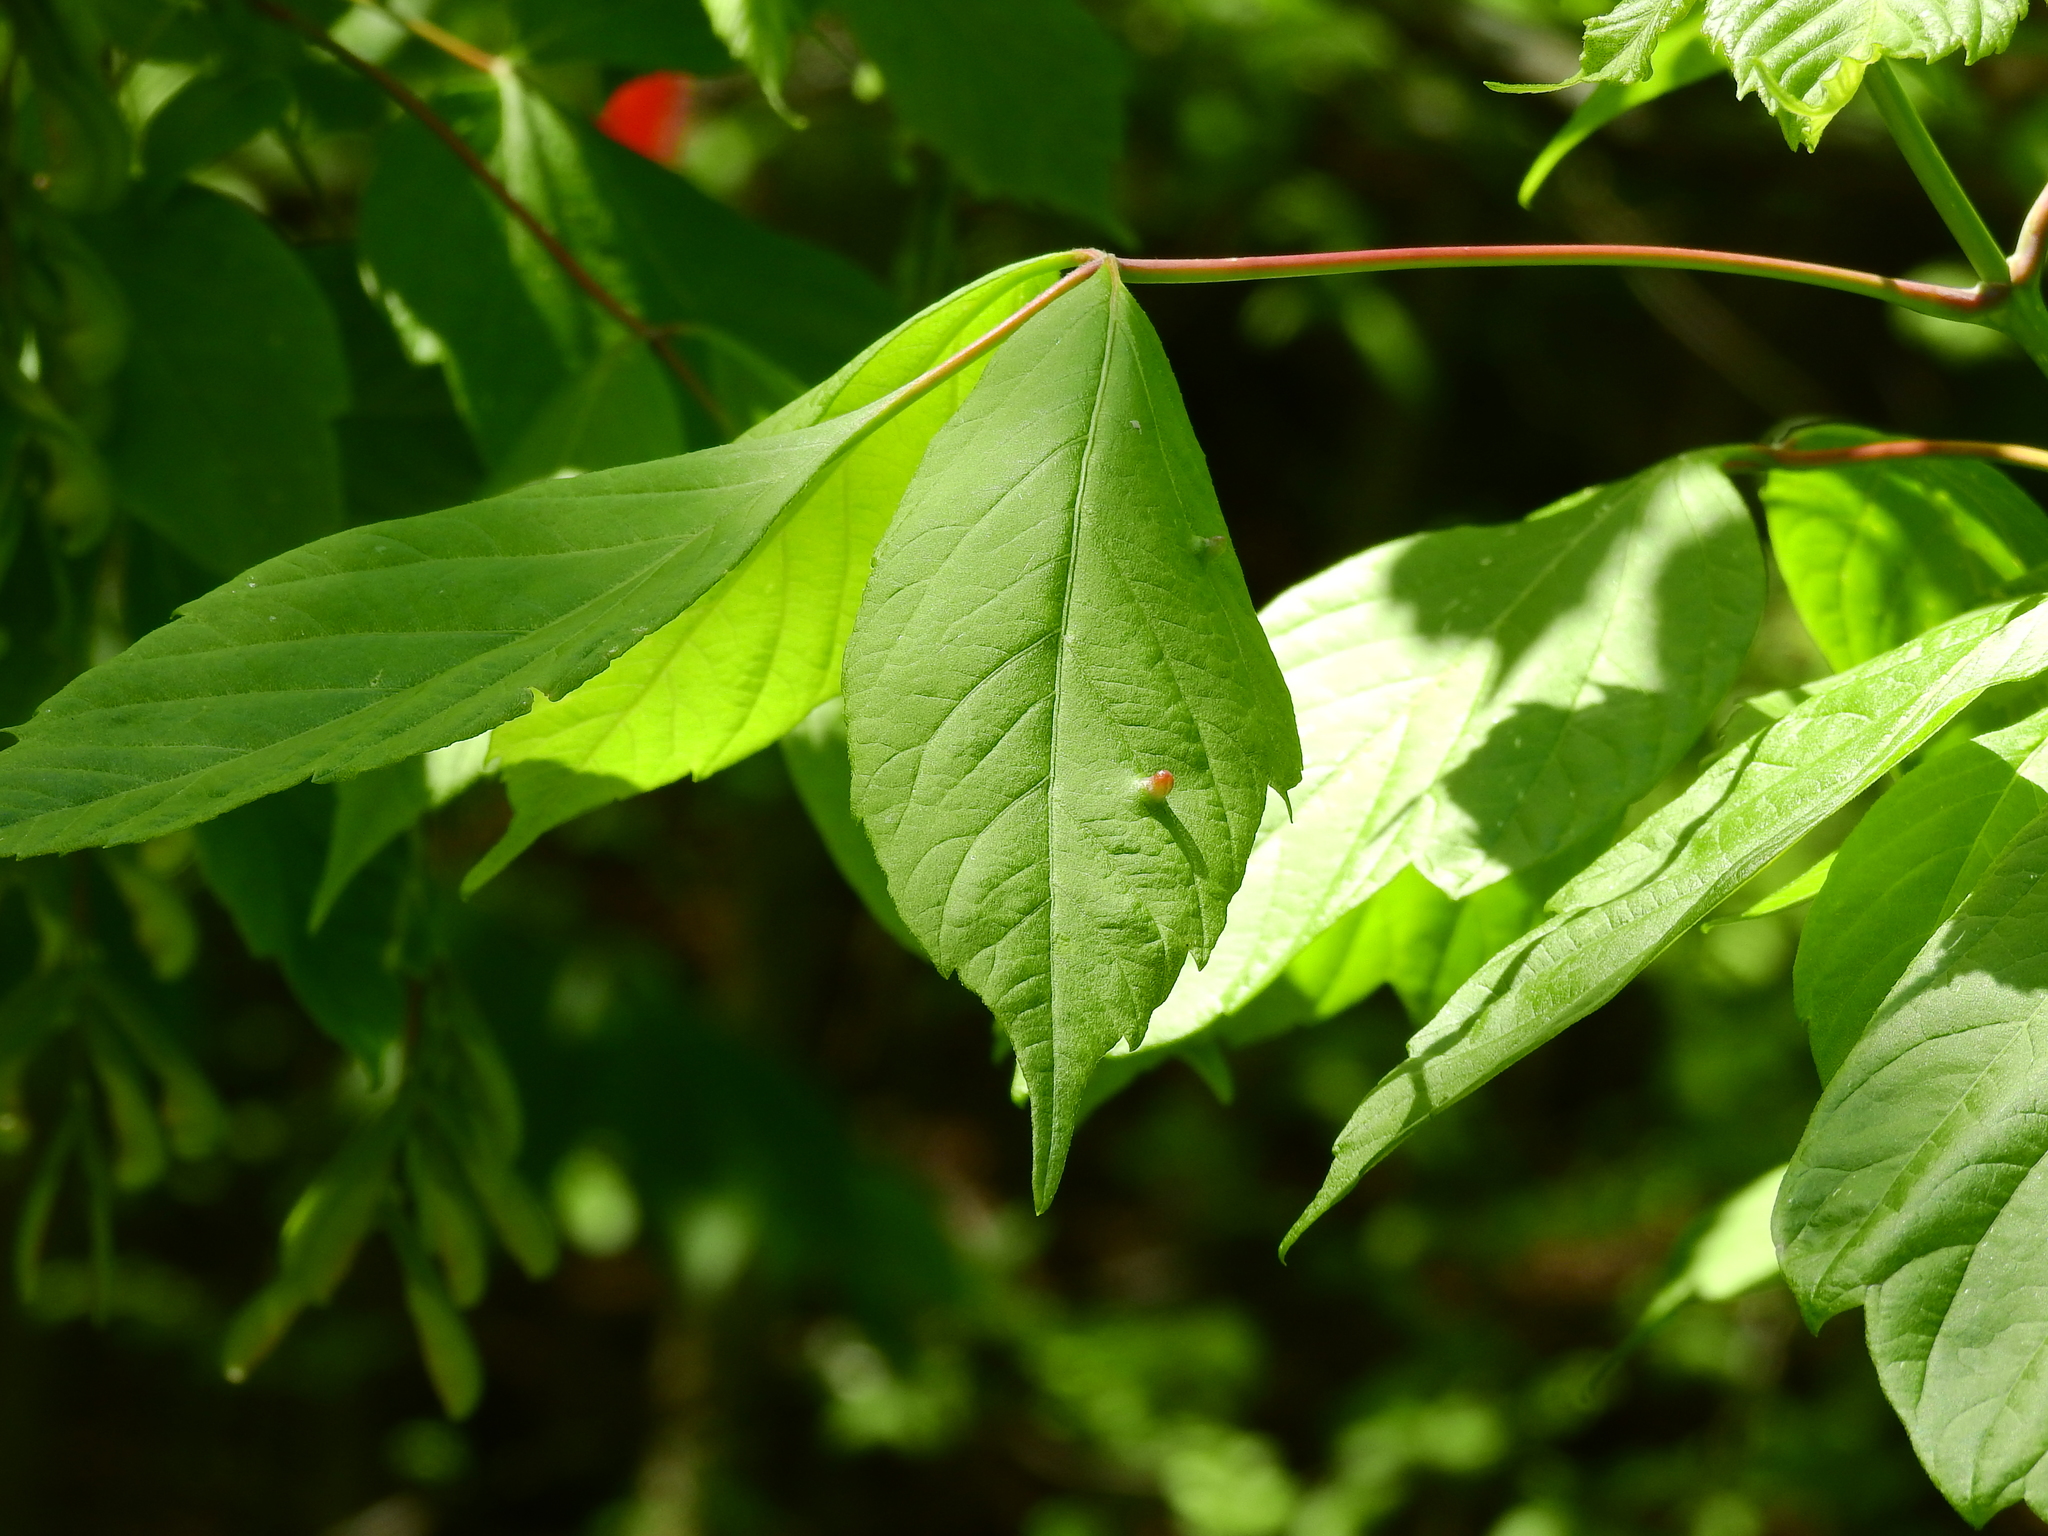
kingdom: Animalia
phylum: Arthropoda
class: Arachnida
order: Trombidiformes
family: Eriophyidae
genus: Aceria
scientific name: Aceria
